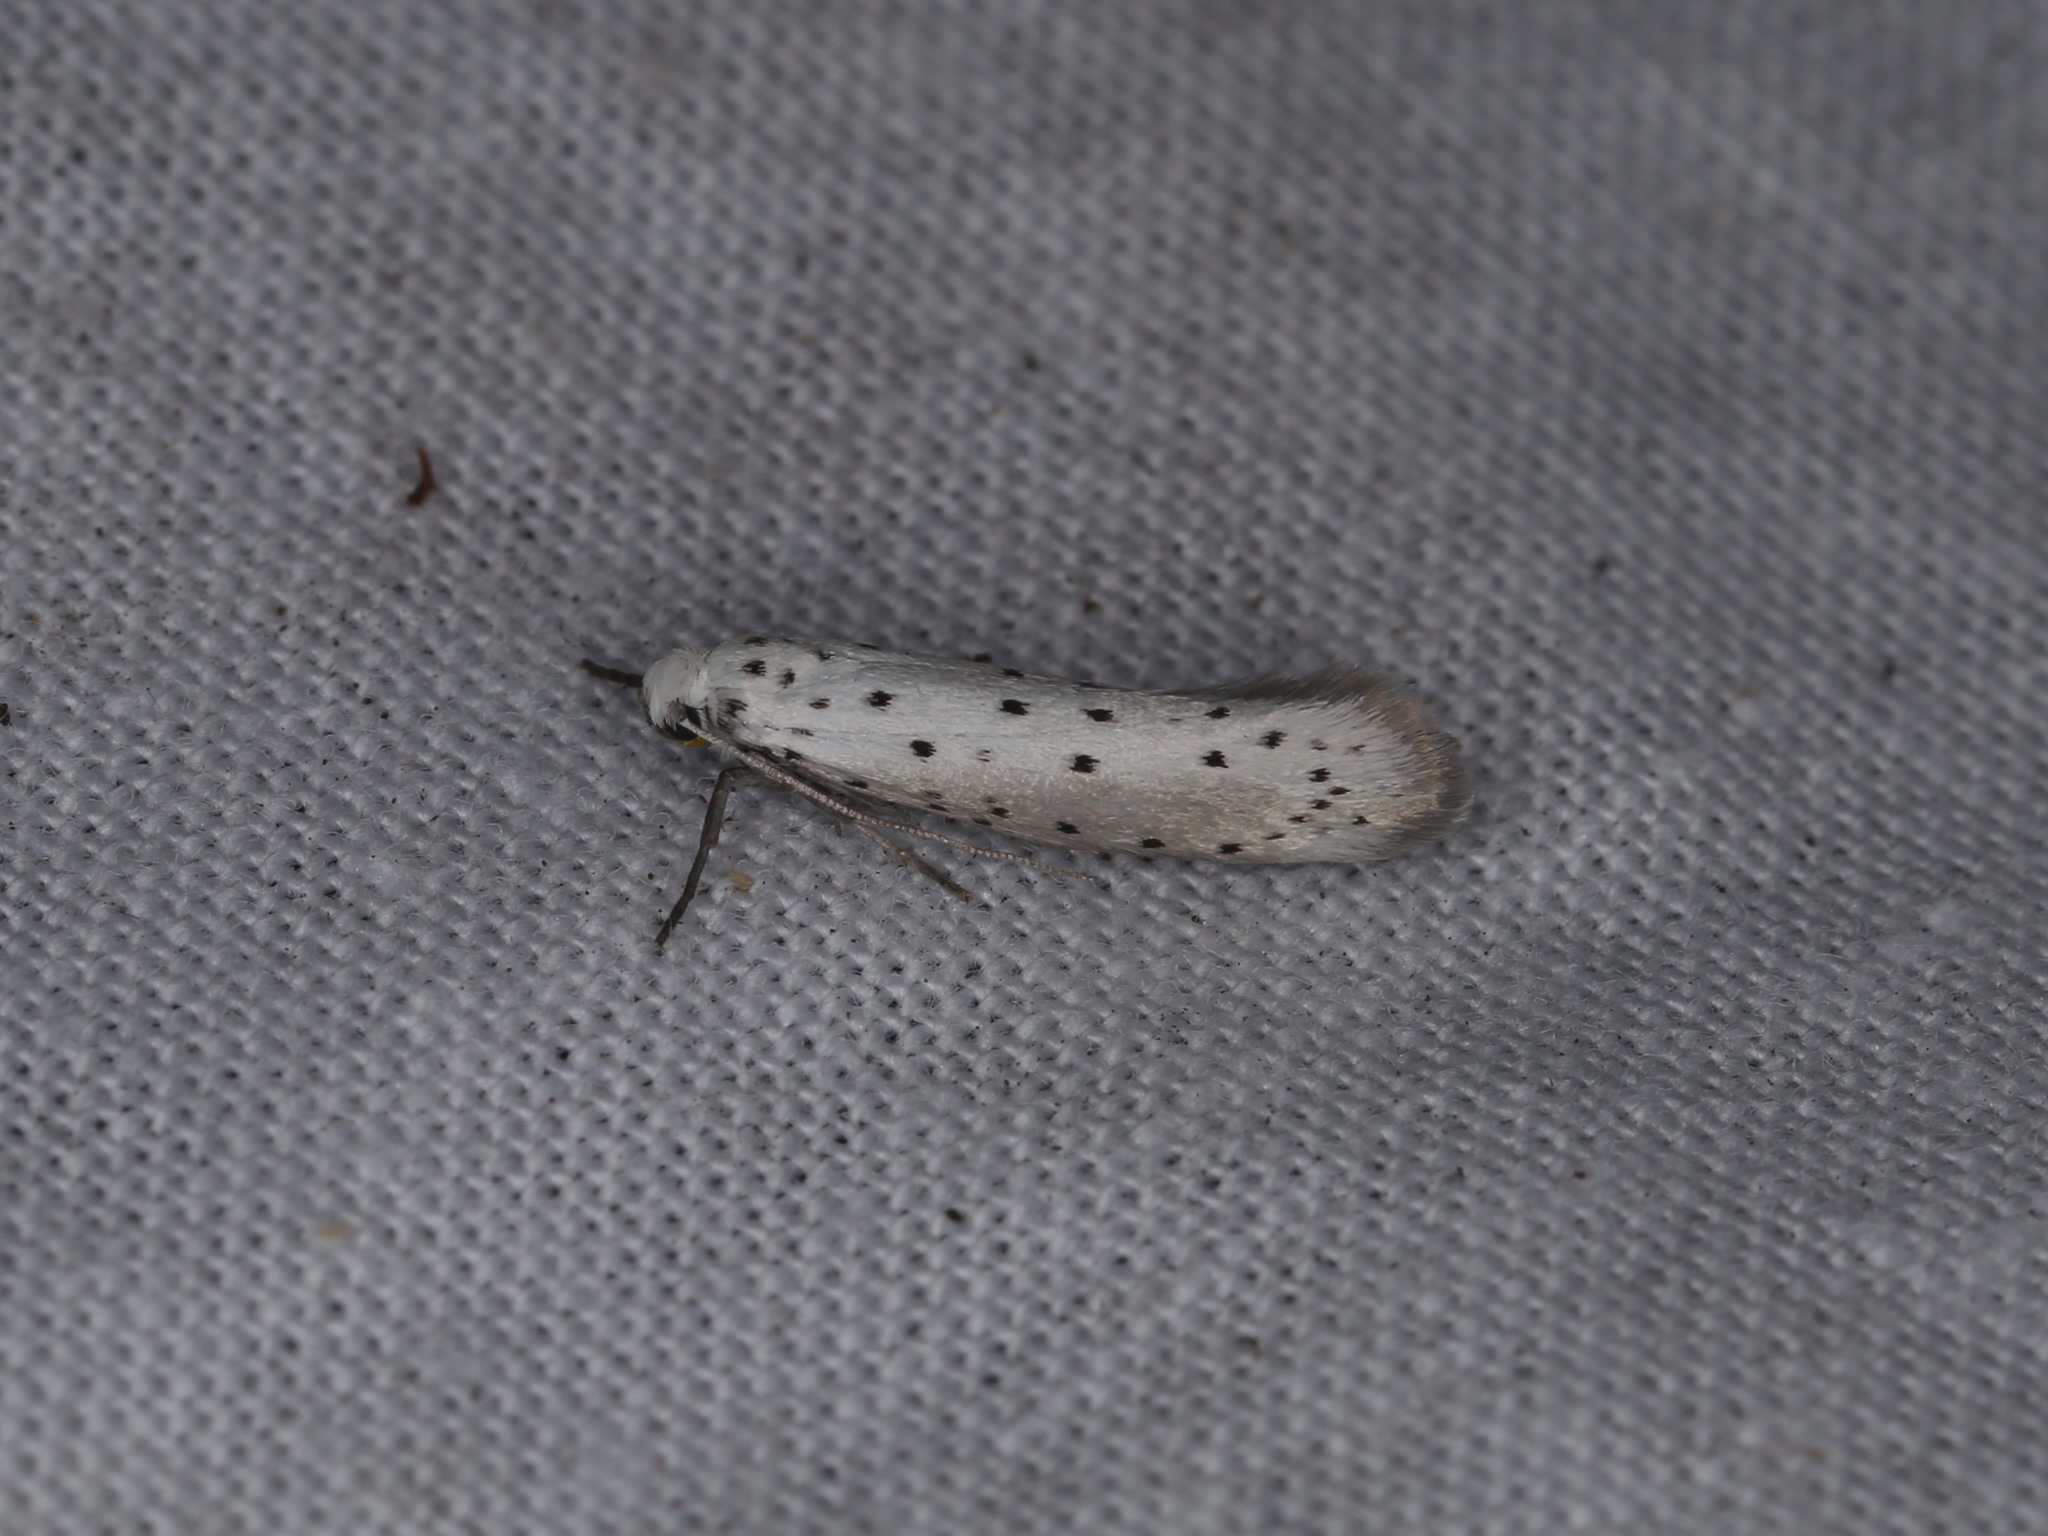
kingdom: Animalia
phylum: Arthropoda
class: Insecta
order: Lepidoptera
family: Yponomeutidae
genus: Yponomeuta
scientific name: Yponomeuta padella
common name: Orchard ermine
